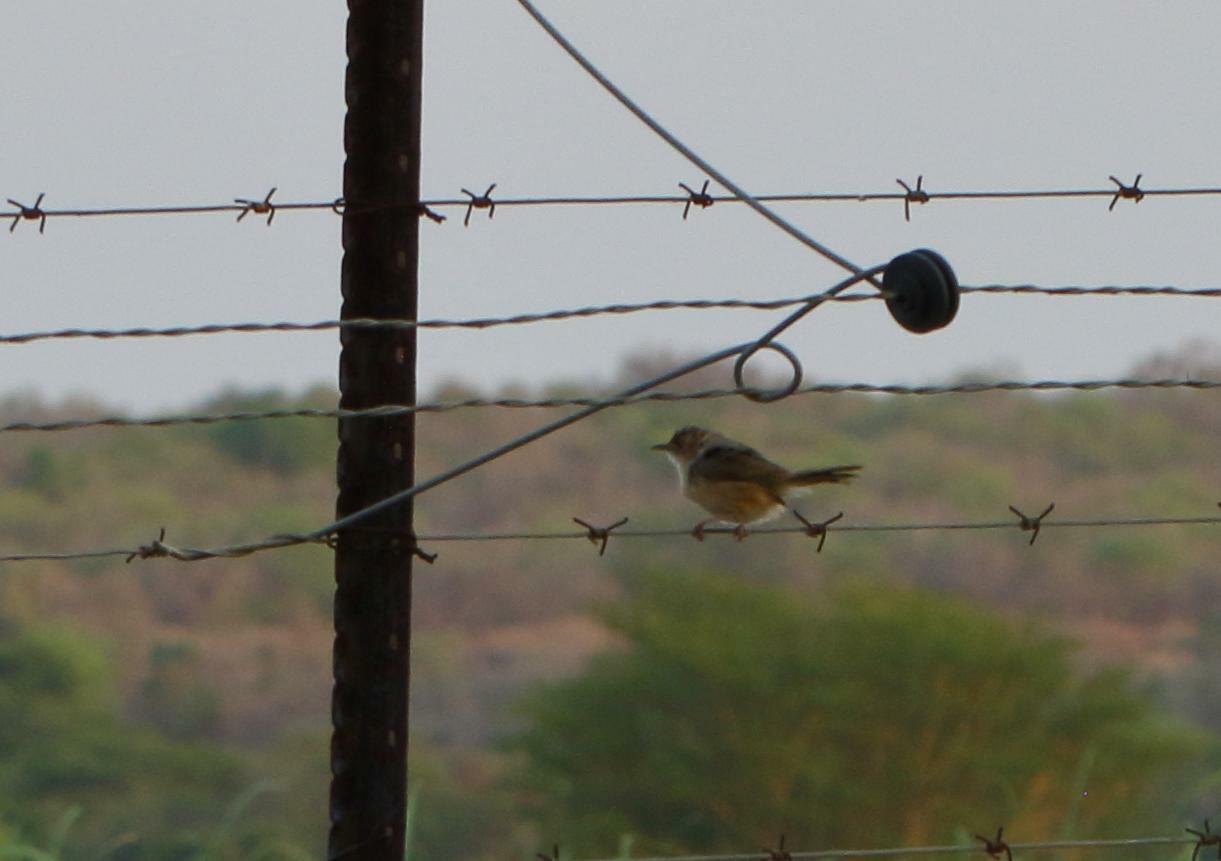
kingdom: Animalia
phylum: Chordata
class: Aves
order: Passeriformes
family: Cisticolidae
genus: Cisticola
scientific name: Cisticola erythrops
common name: Red-faced cisticola
